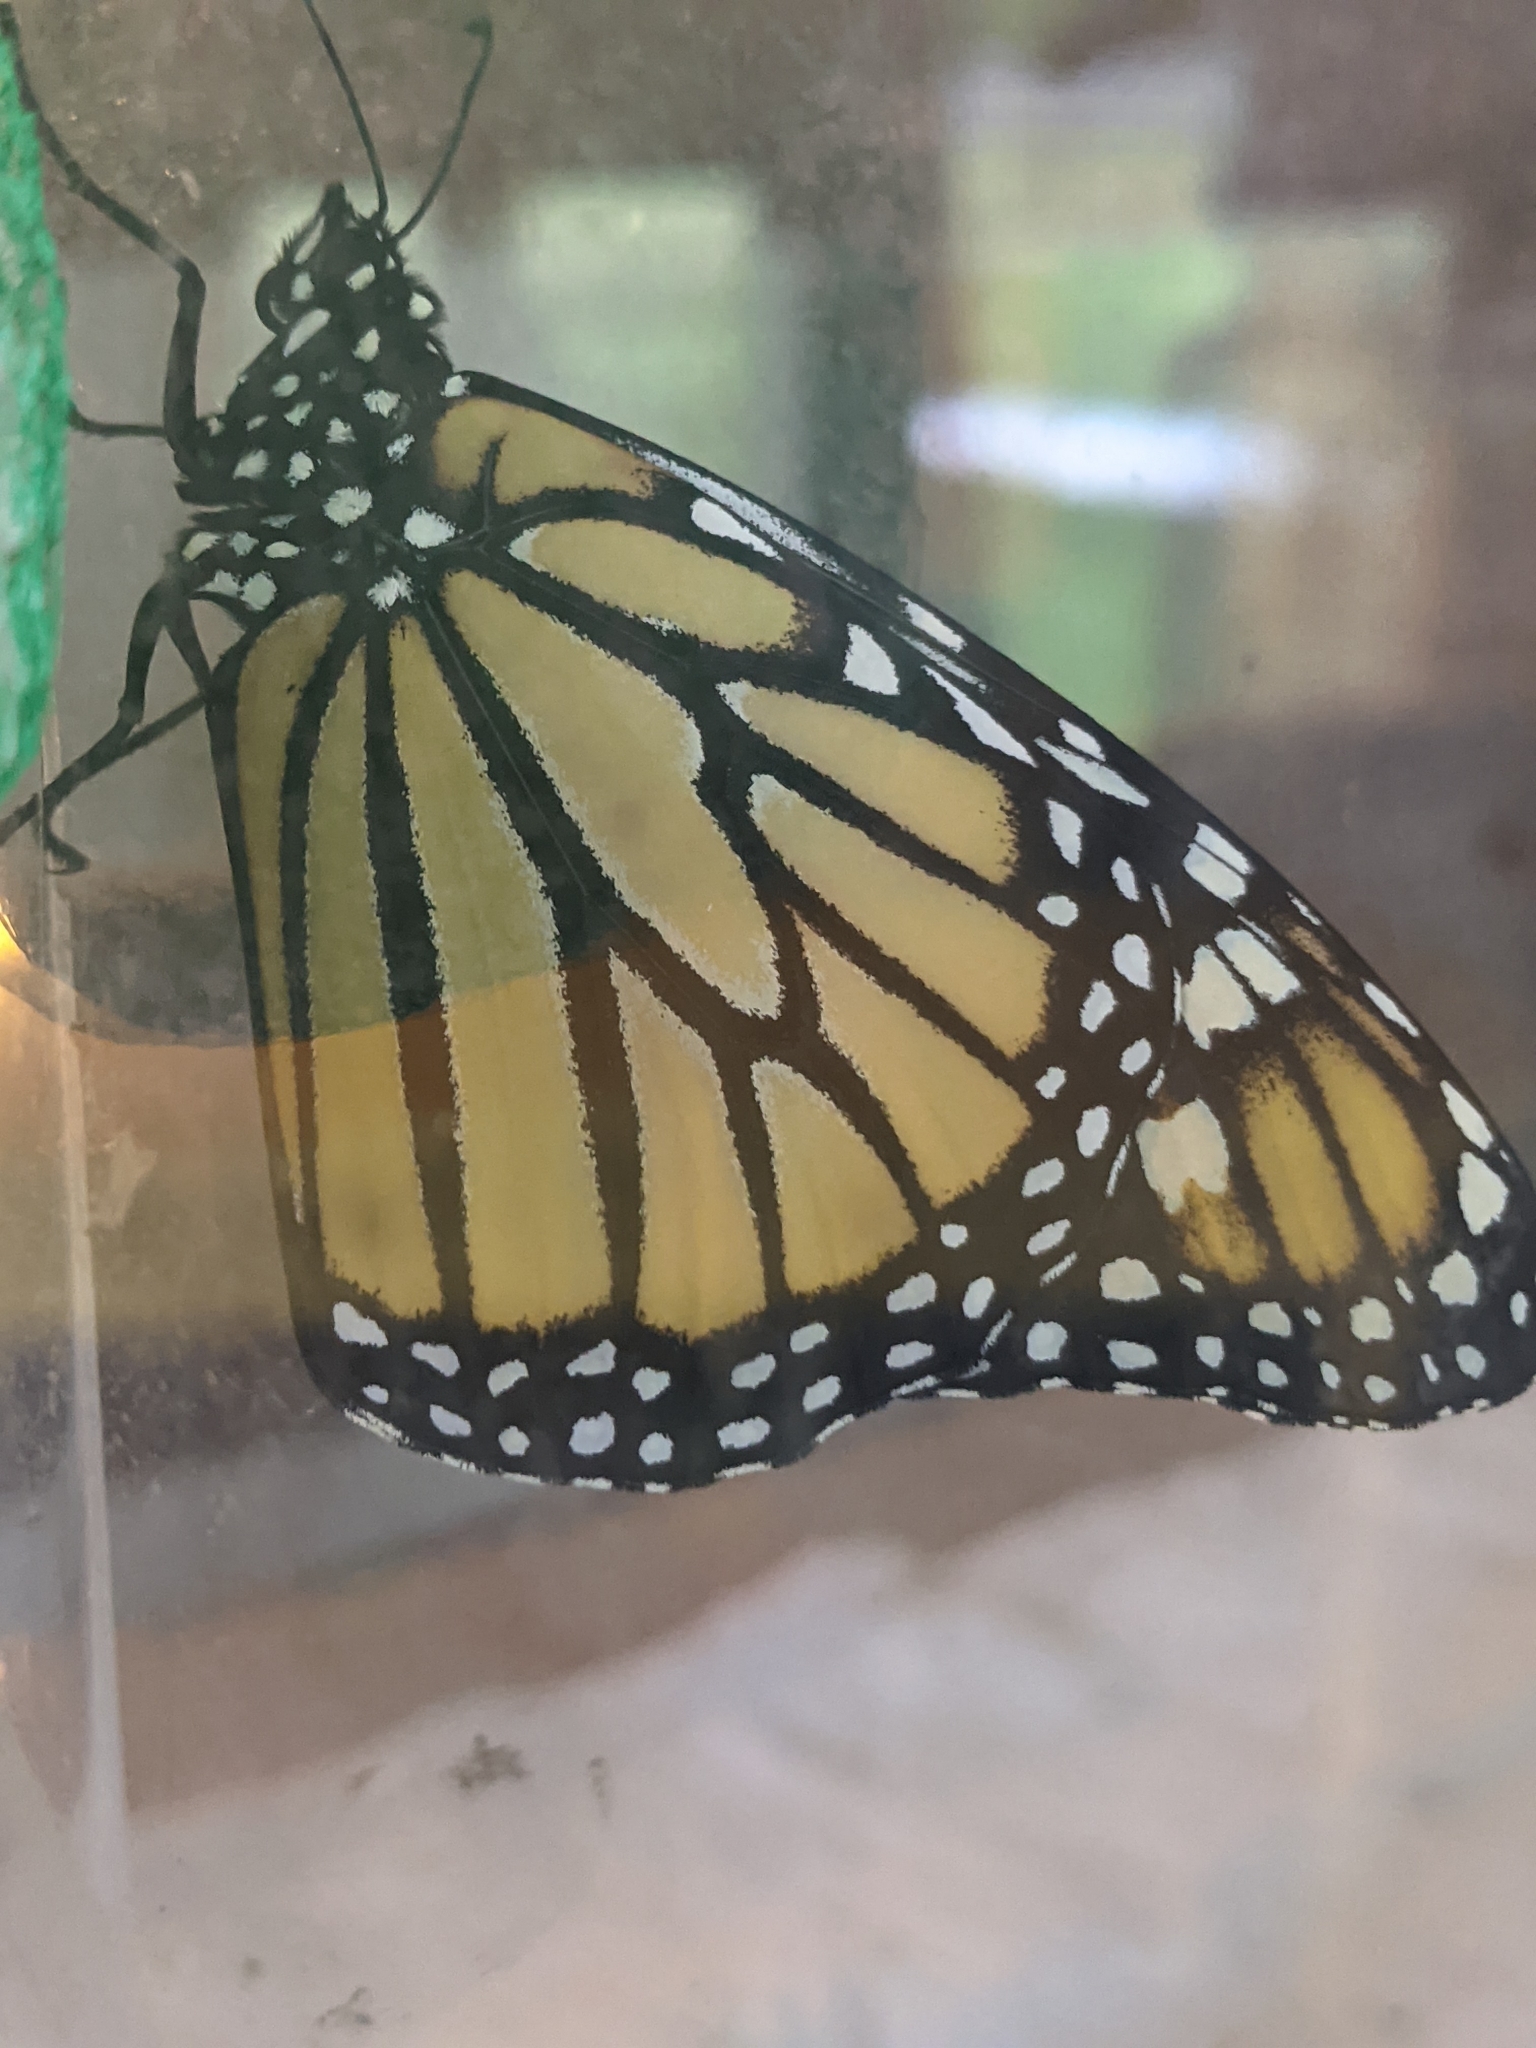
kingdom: Animalia
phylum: Arthropoda
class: Insecta
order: Lepidoptera
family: Nymphalidae
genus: Danaus
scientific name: Danaus plexippus
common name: Monarch
